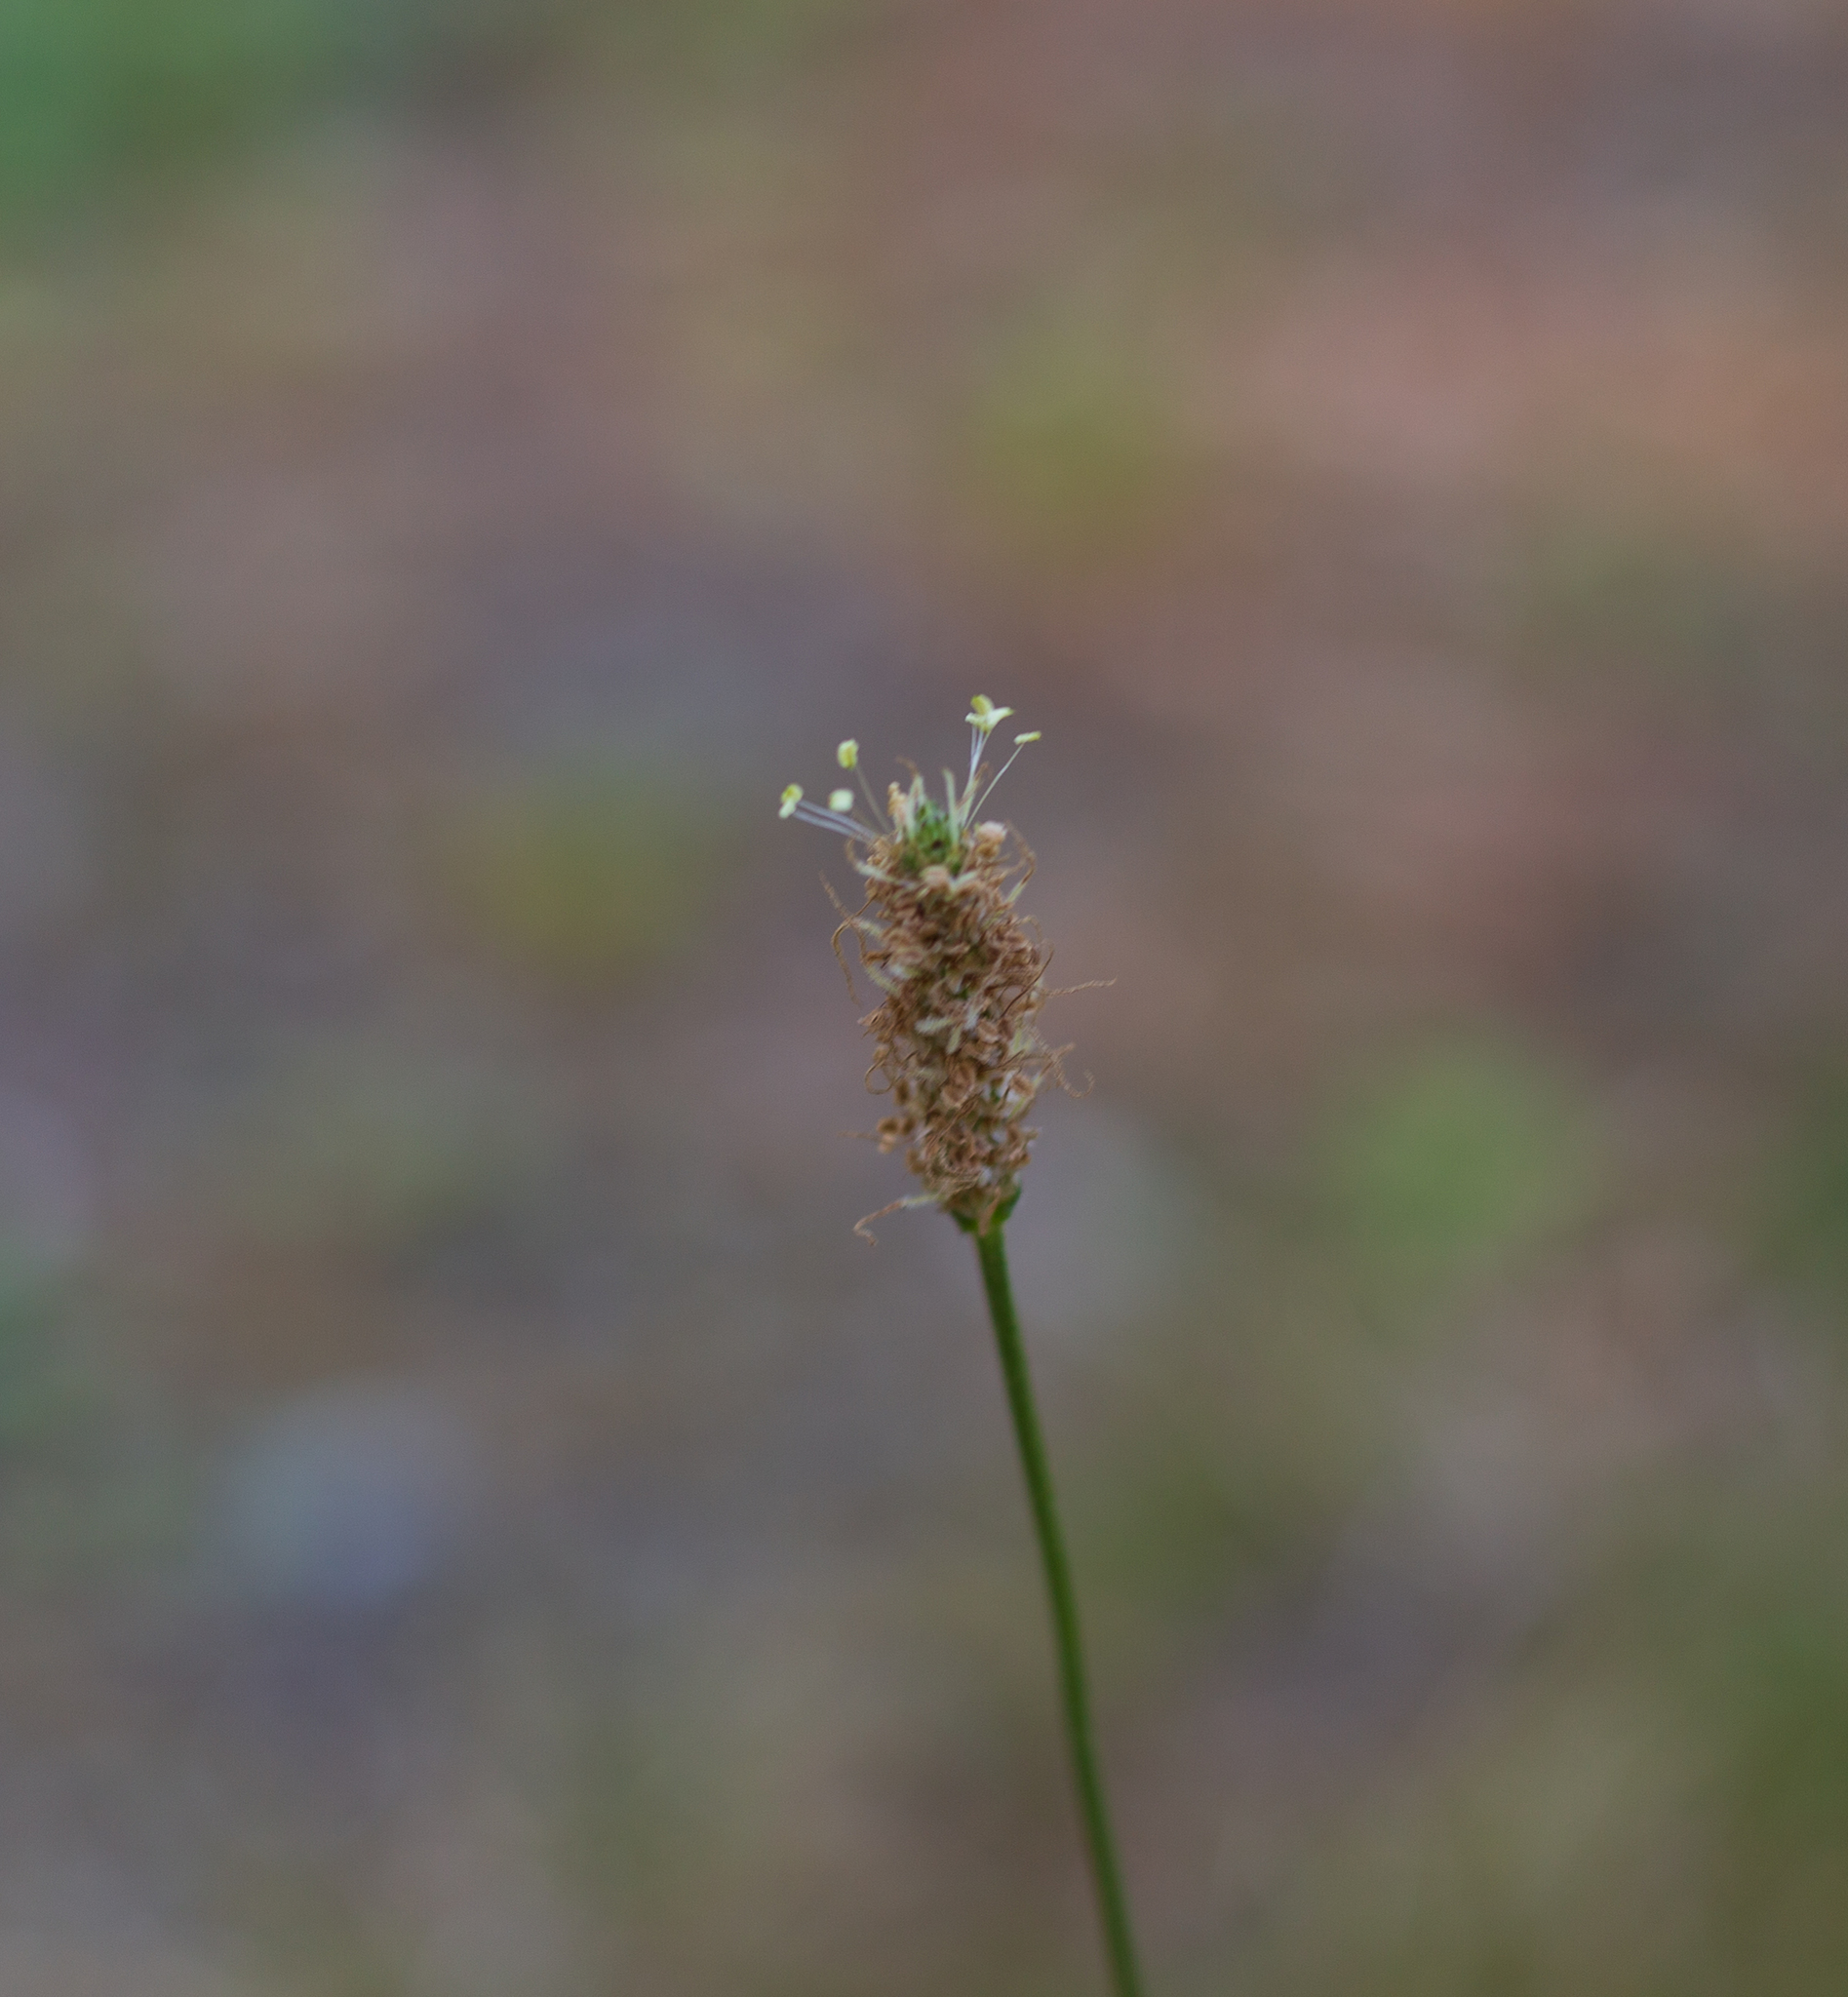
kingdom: Plantae
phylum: Tracheophyta
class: Magnoliopsida
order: Lamiales
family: Plantaginaceae
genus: Plantago
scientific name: Plantago lanceolata
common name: Ribwort plantain
